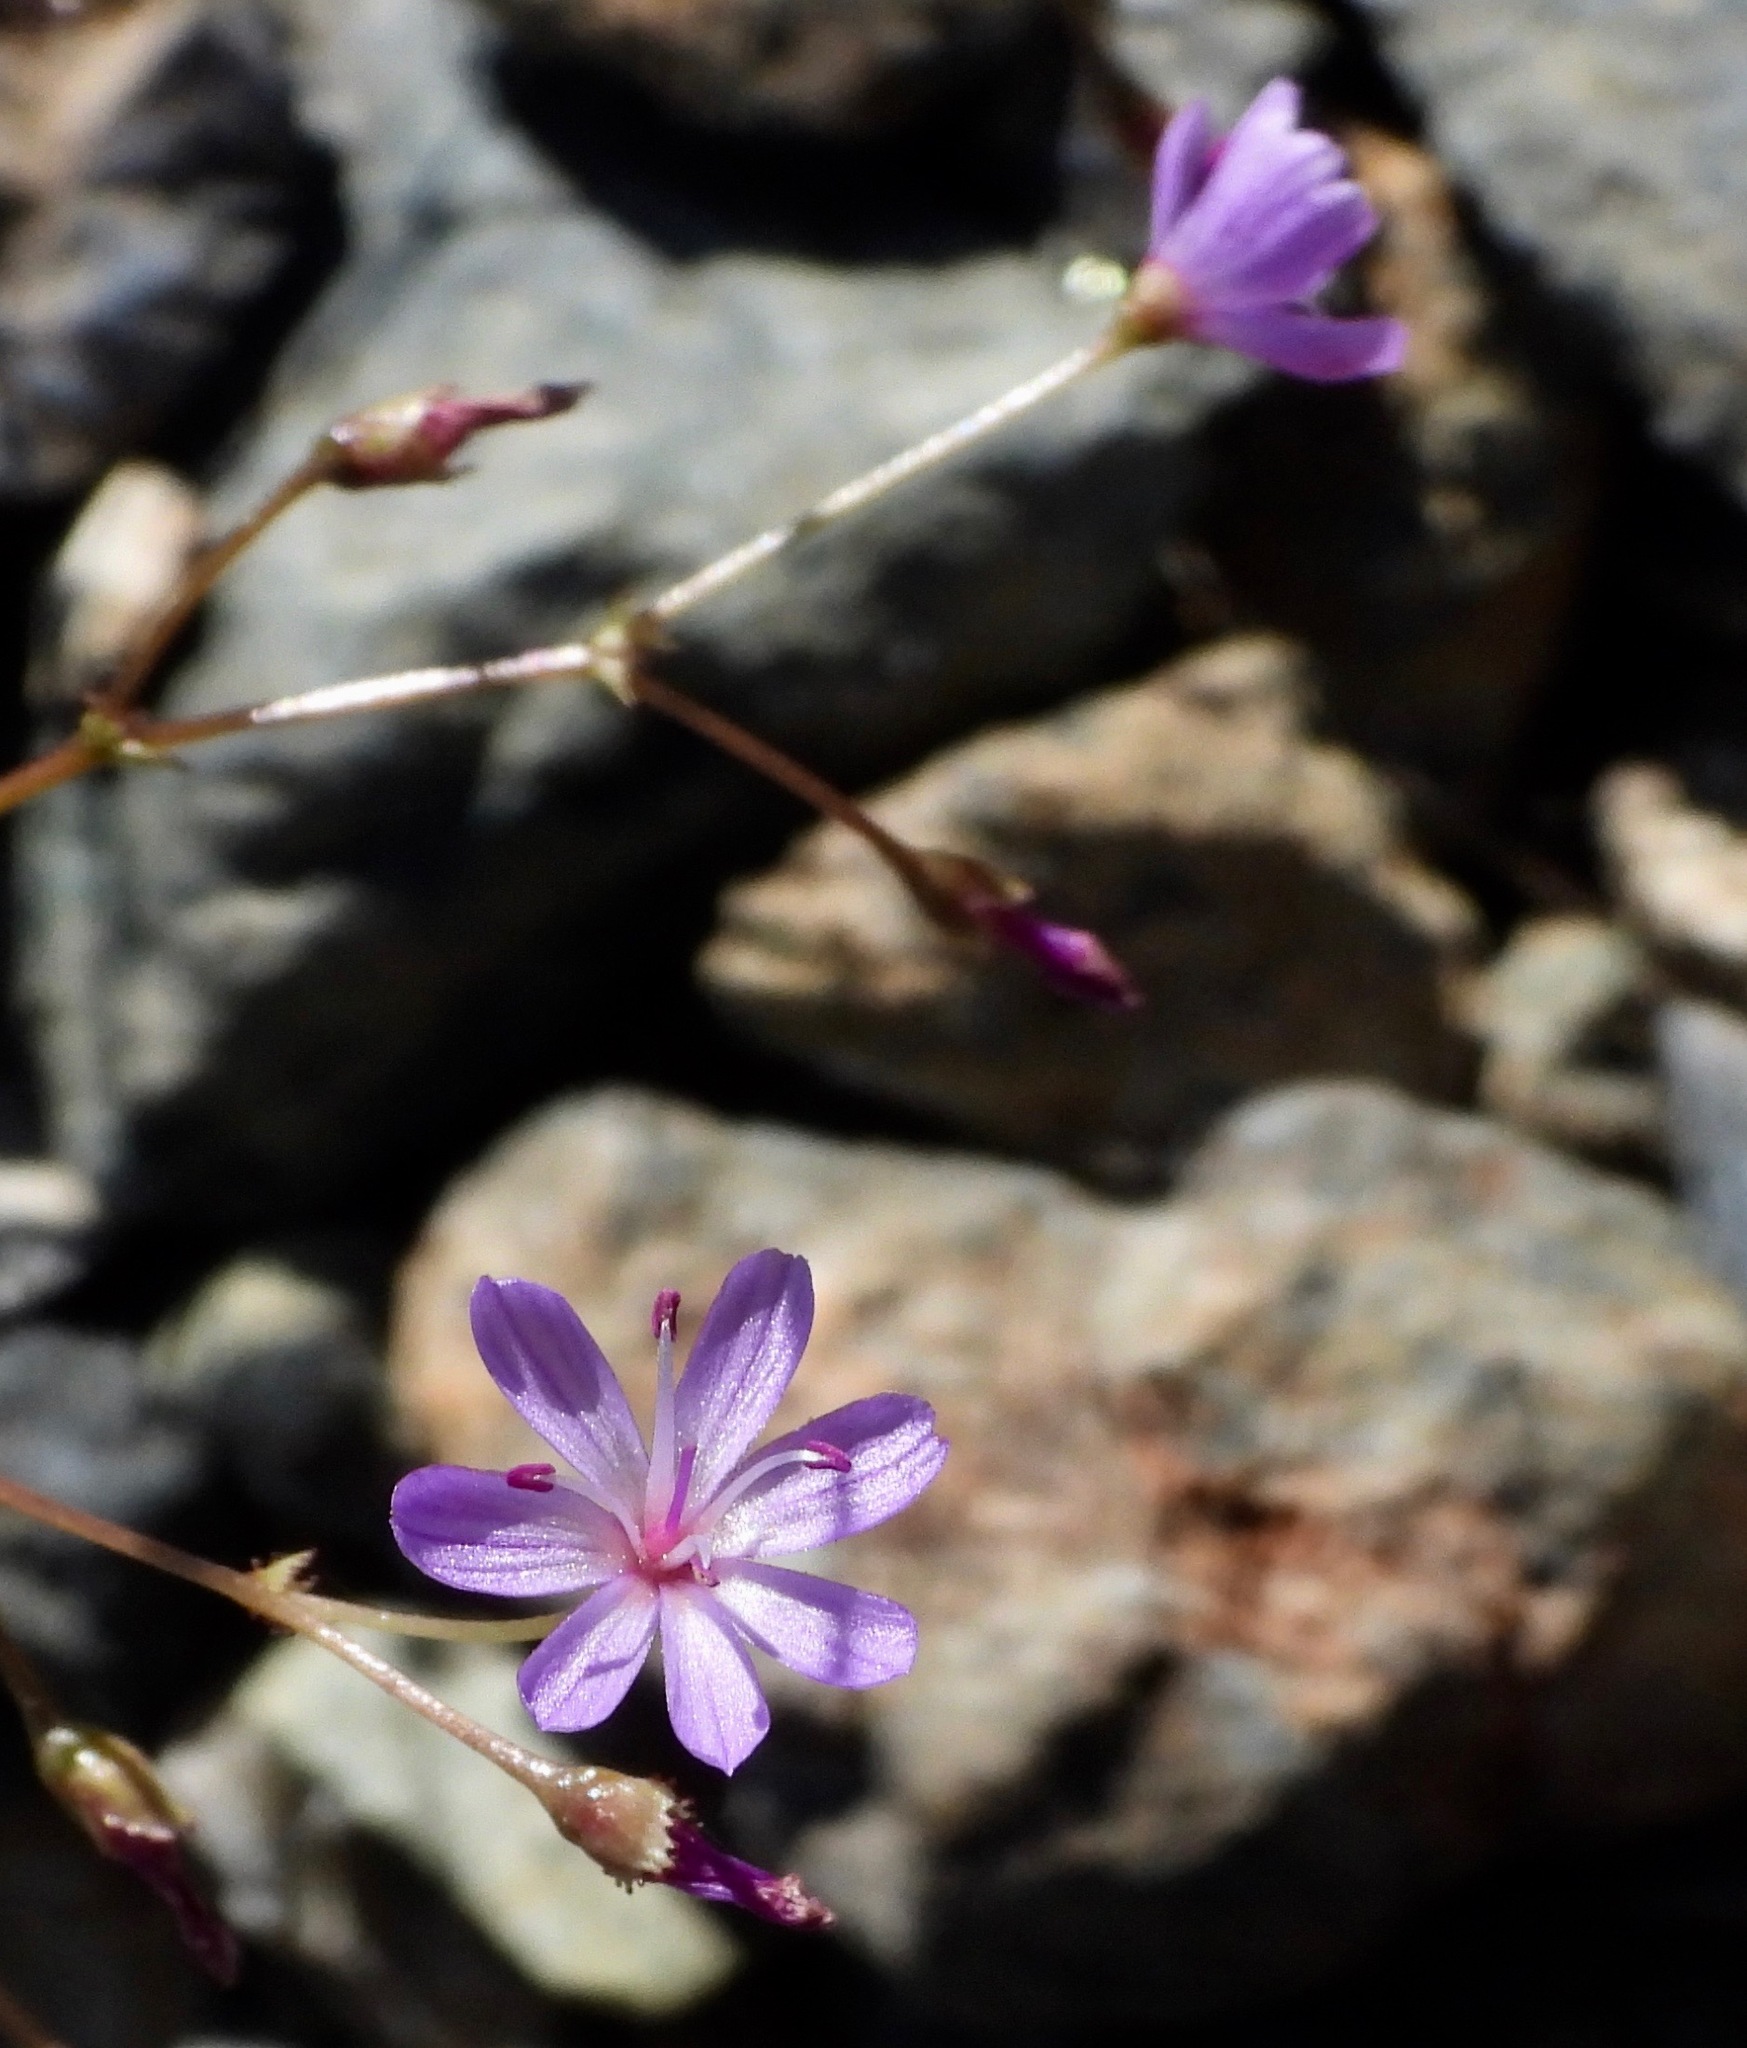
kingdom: Plantae
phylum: Tracheophyta
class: Magnoliopsida
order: Caryophyllales
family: Montiaceae
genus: Lewisia
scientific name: Lewisia leeana
